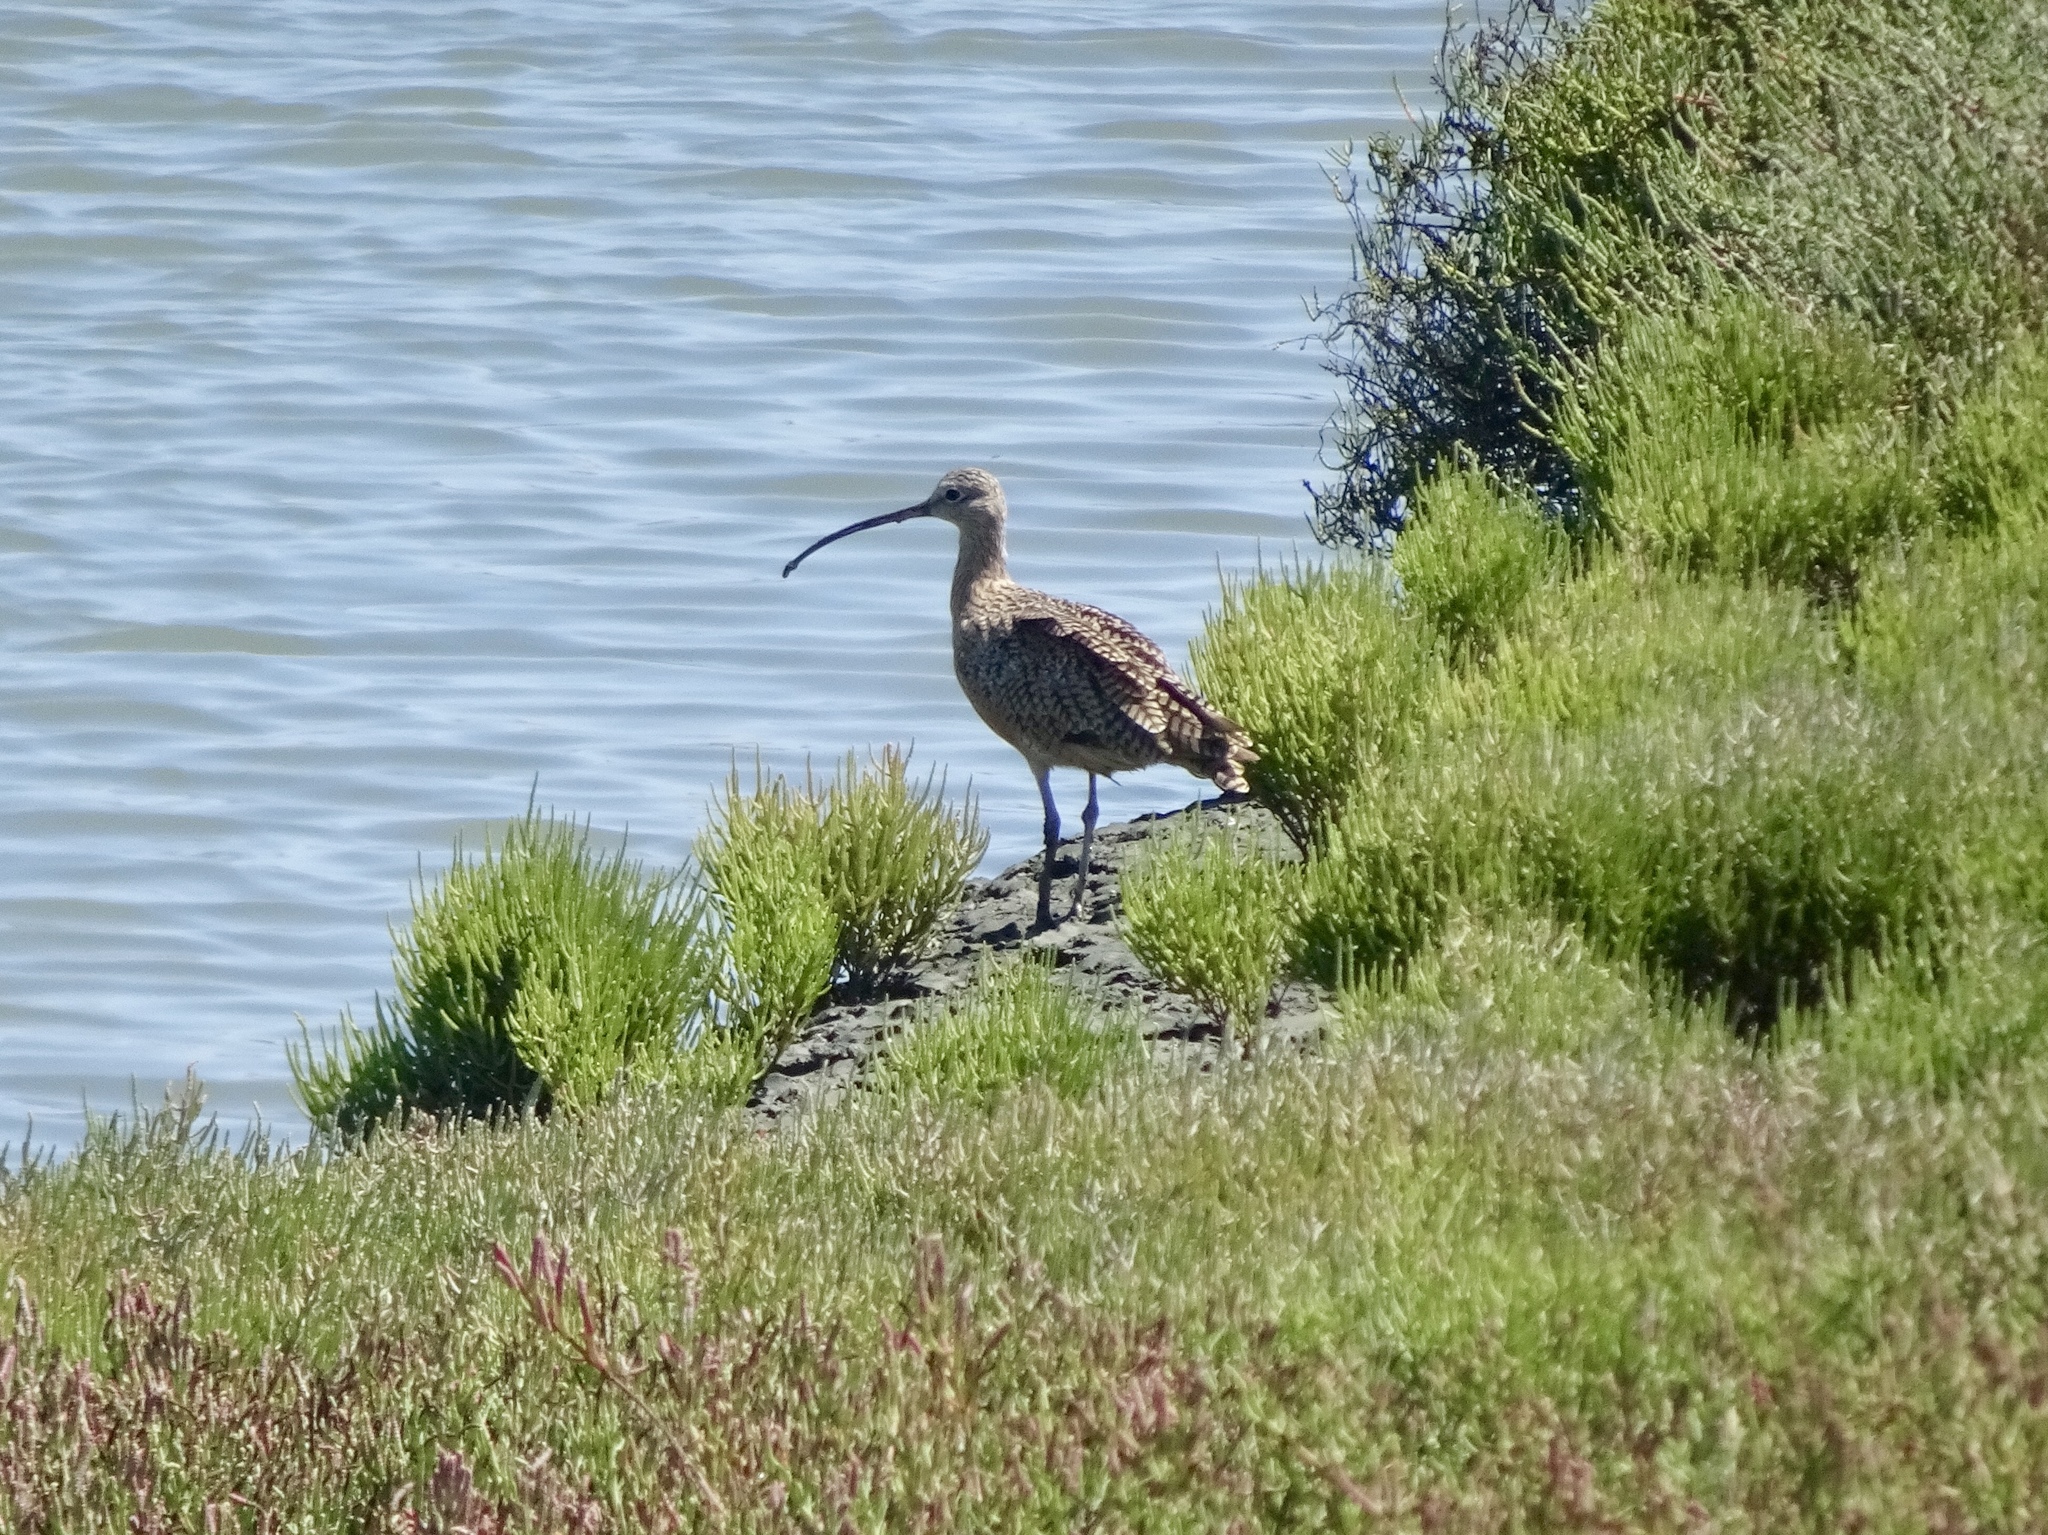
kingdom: Animalia
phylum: Chordata
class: Aves
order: Charadriiformes
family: Scolopacidae
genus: Numenius
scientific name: Numenius americanus
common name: Long-billed curlew
